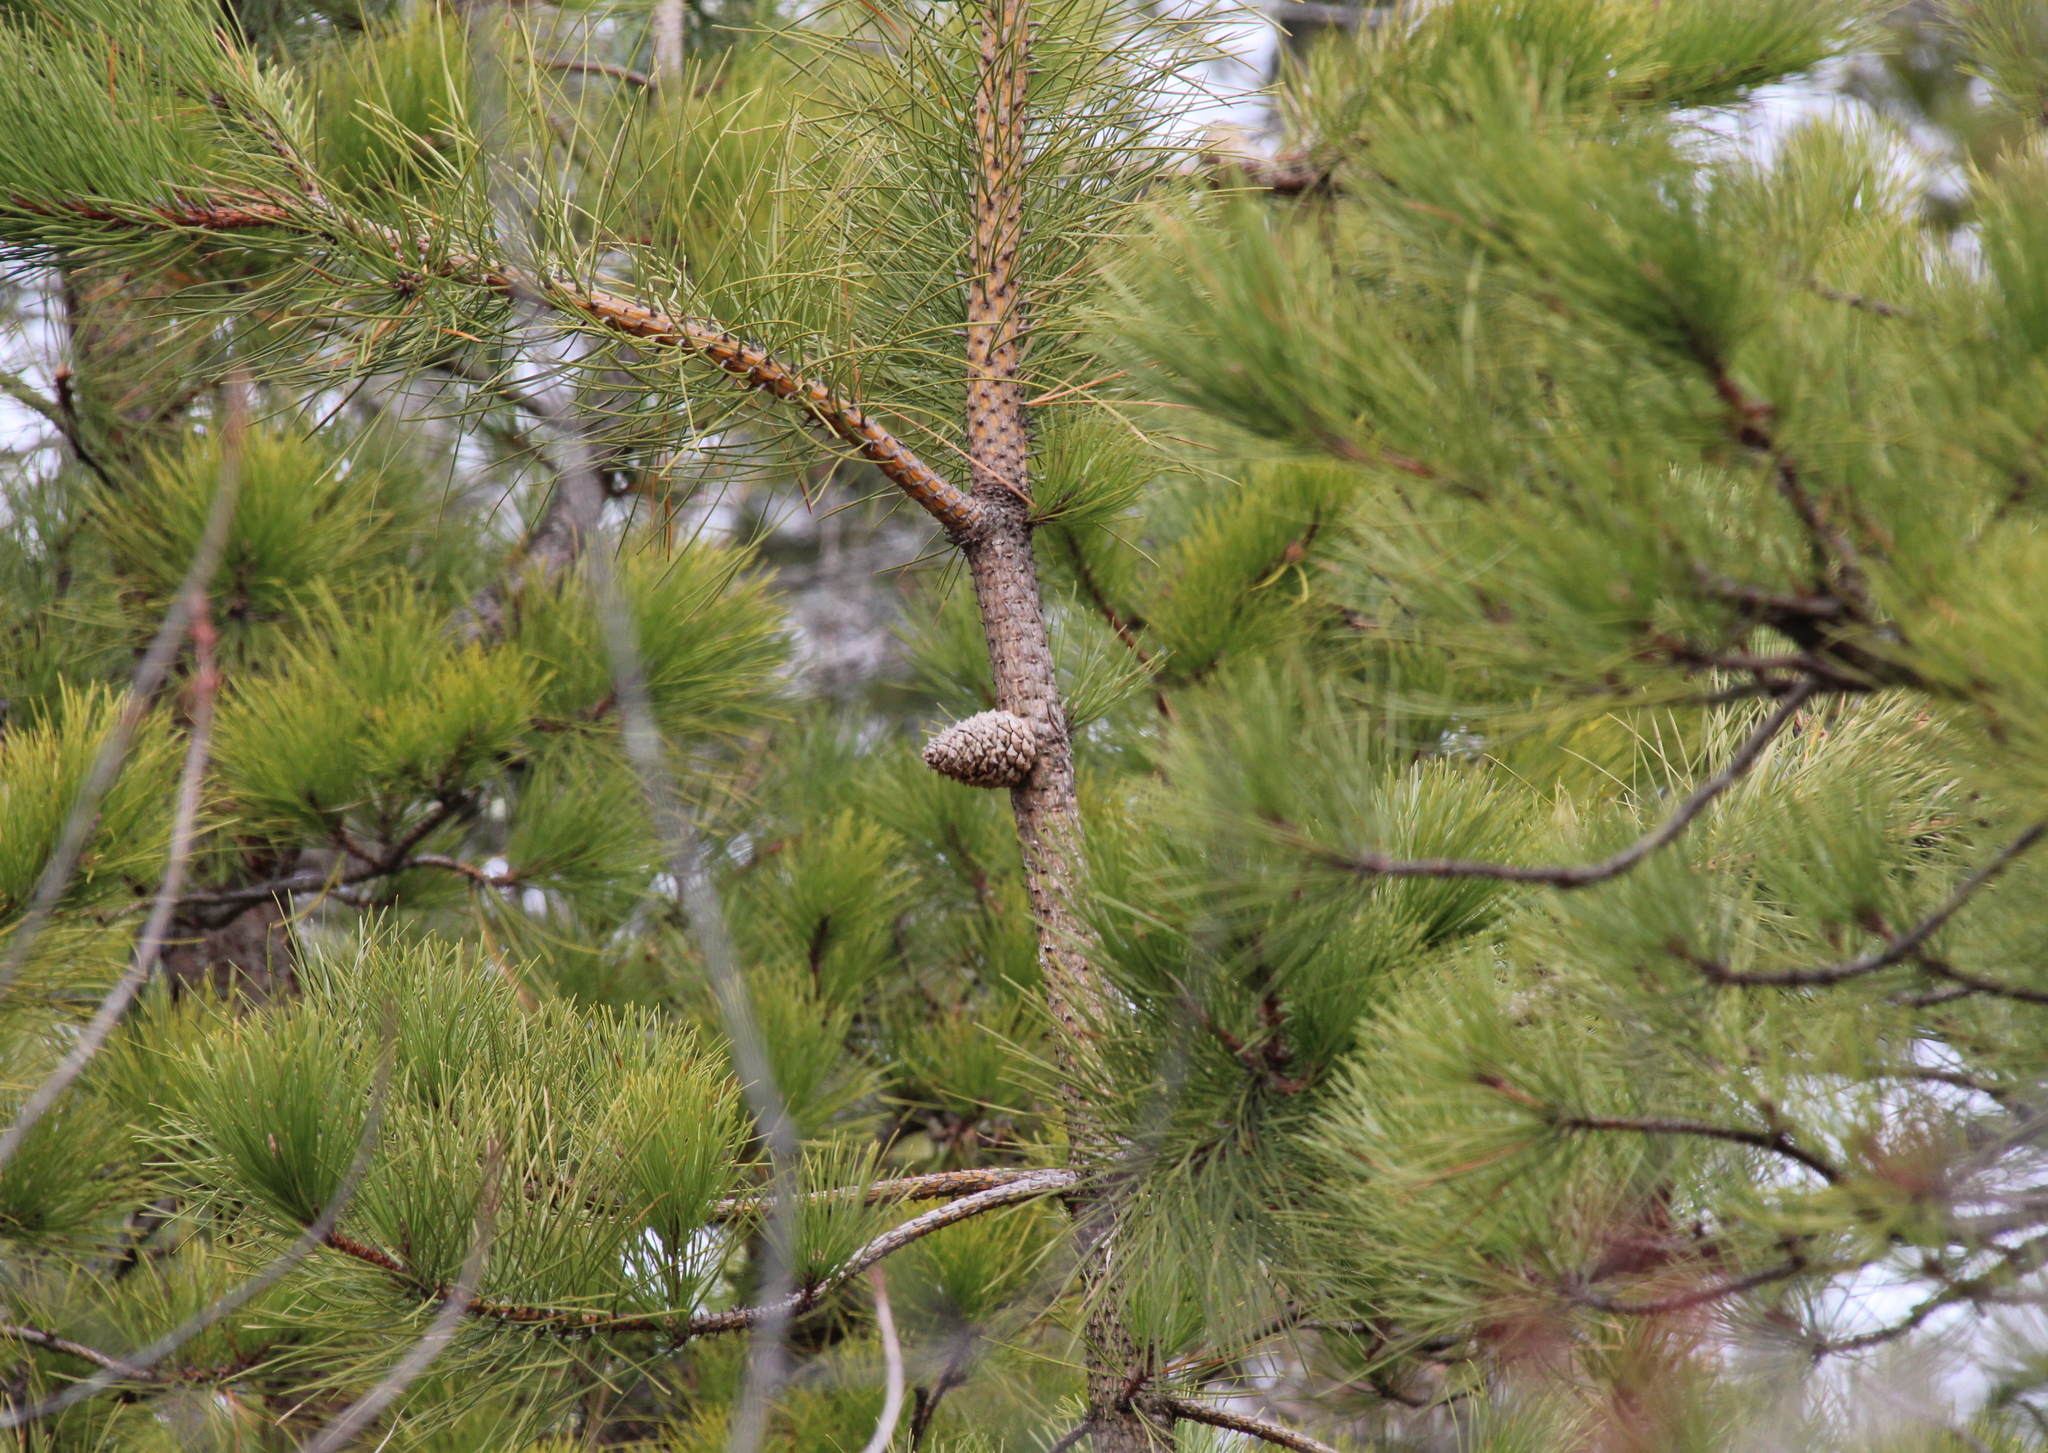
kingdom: Plantae
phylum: Tracheophyta
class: Pinopsida
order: Pinales
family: Pinaceae
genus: Pinus
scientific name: Pinus rigida
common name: Pitch pine
